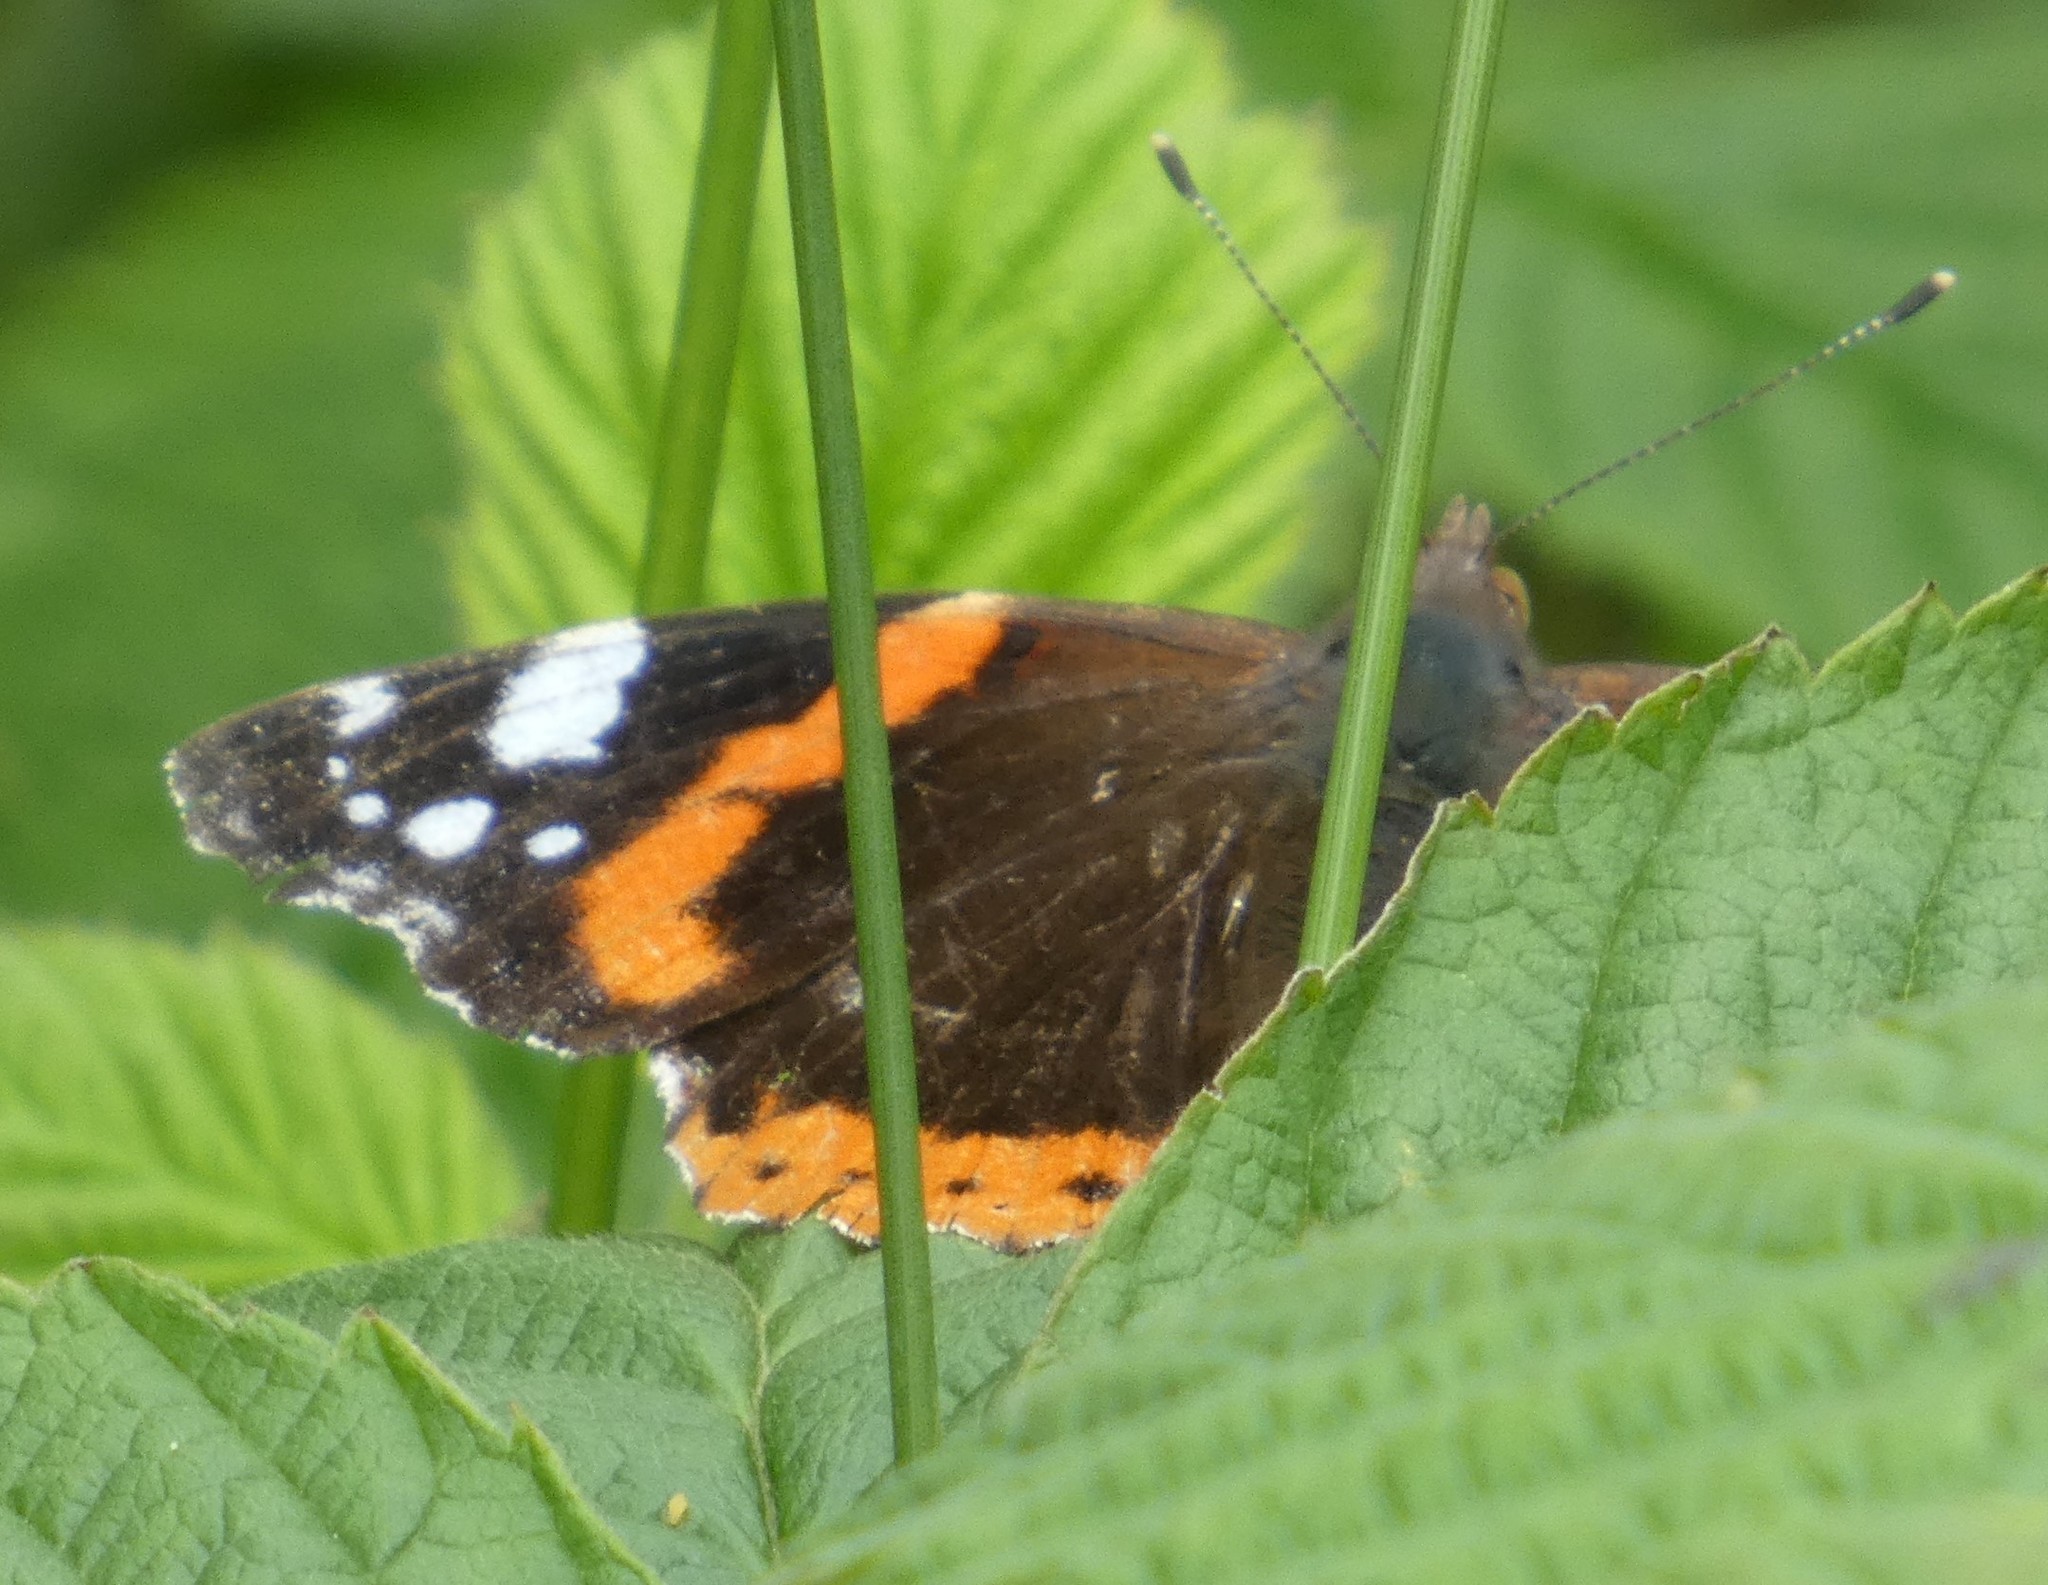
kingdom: Animalia
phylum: Arthropoda
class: Insecta
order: Lepidoptera
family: Nymphalidae
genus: Vanessa
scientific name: Vanessa atalanta
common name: Red admiral
